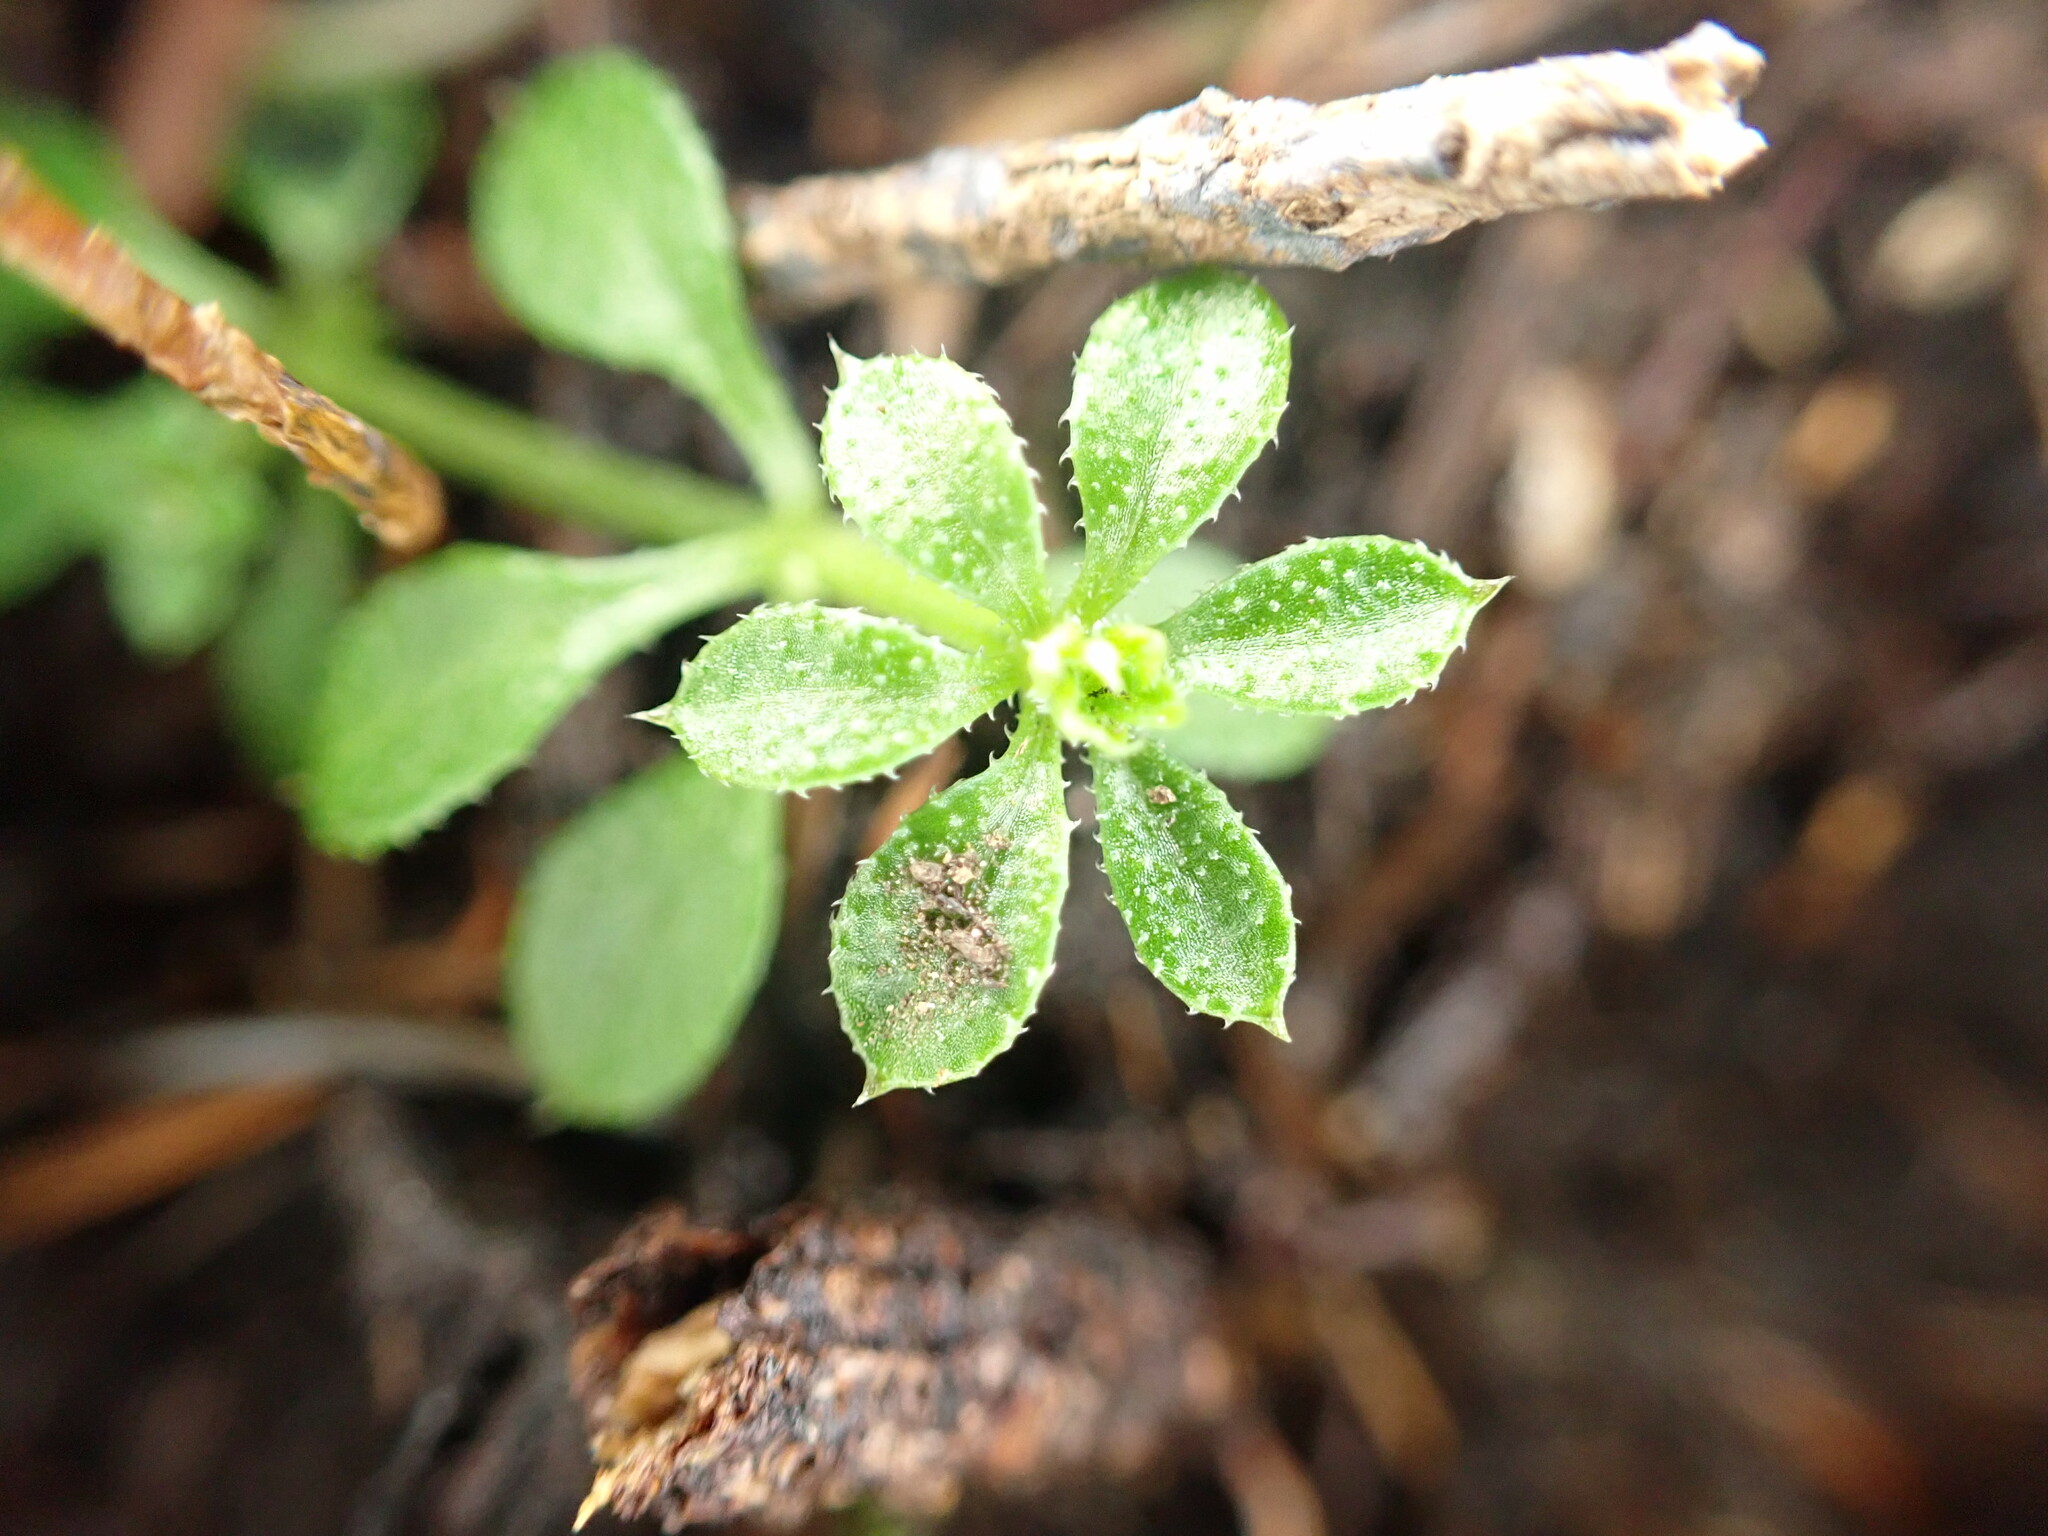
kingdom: Plantae
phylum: Tracheophyta
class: Magnoliopsida
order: Gentianales
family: Rubiaceae
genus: Galium
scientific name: Galium aparine
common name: Cleavers
